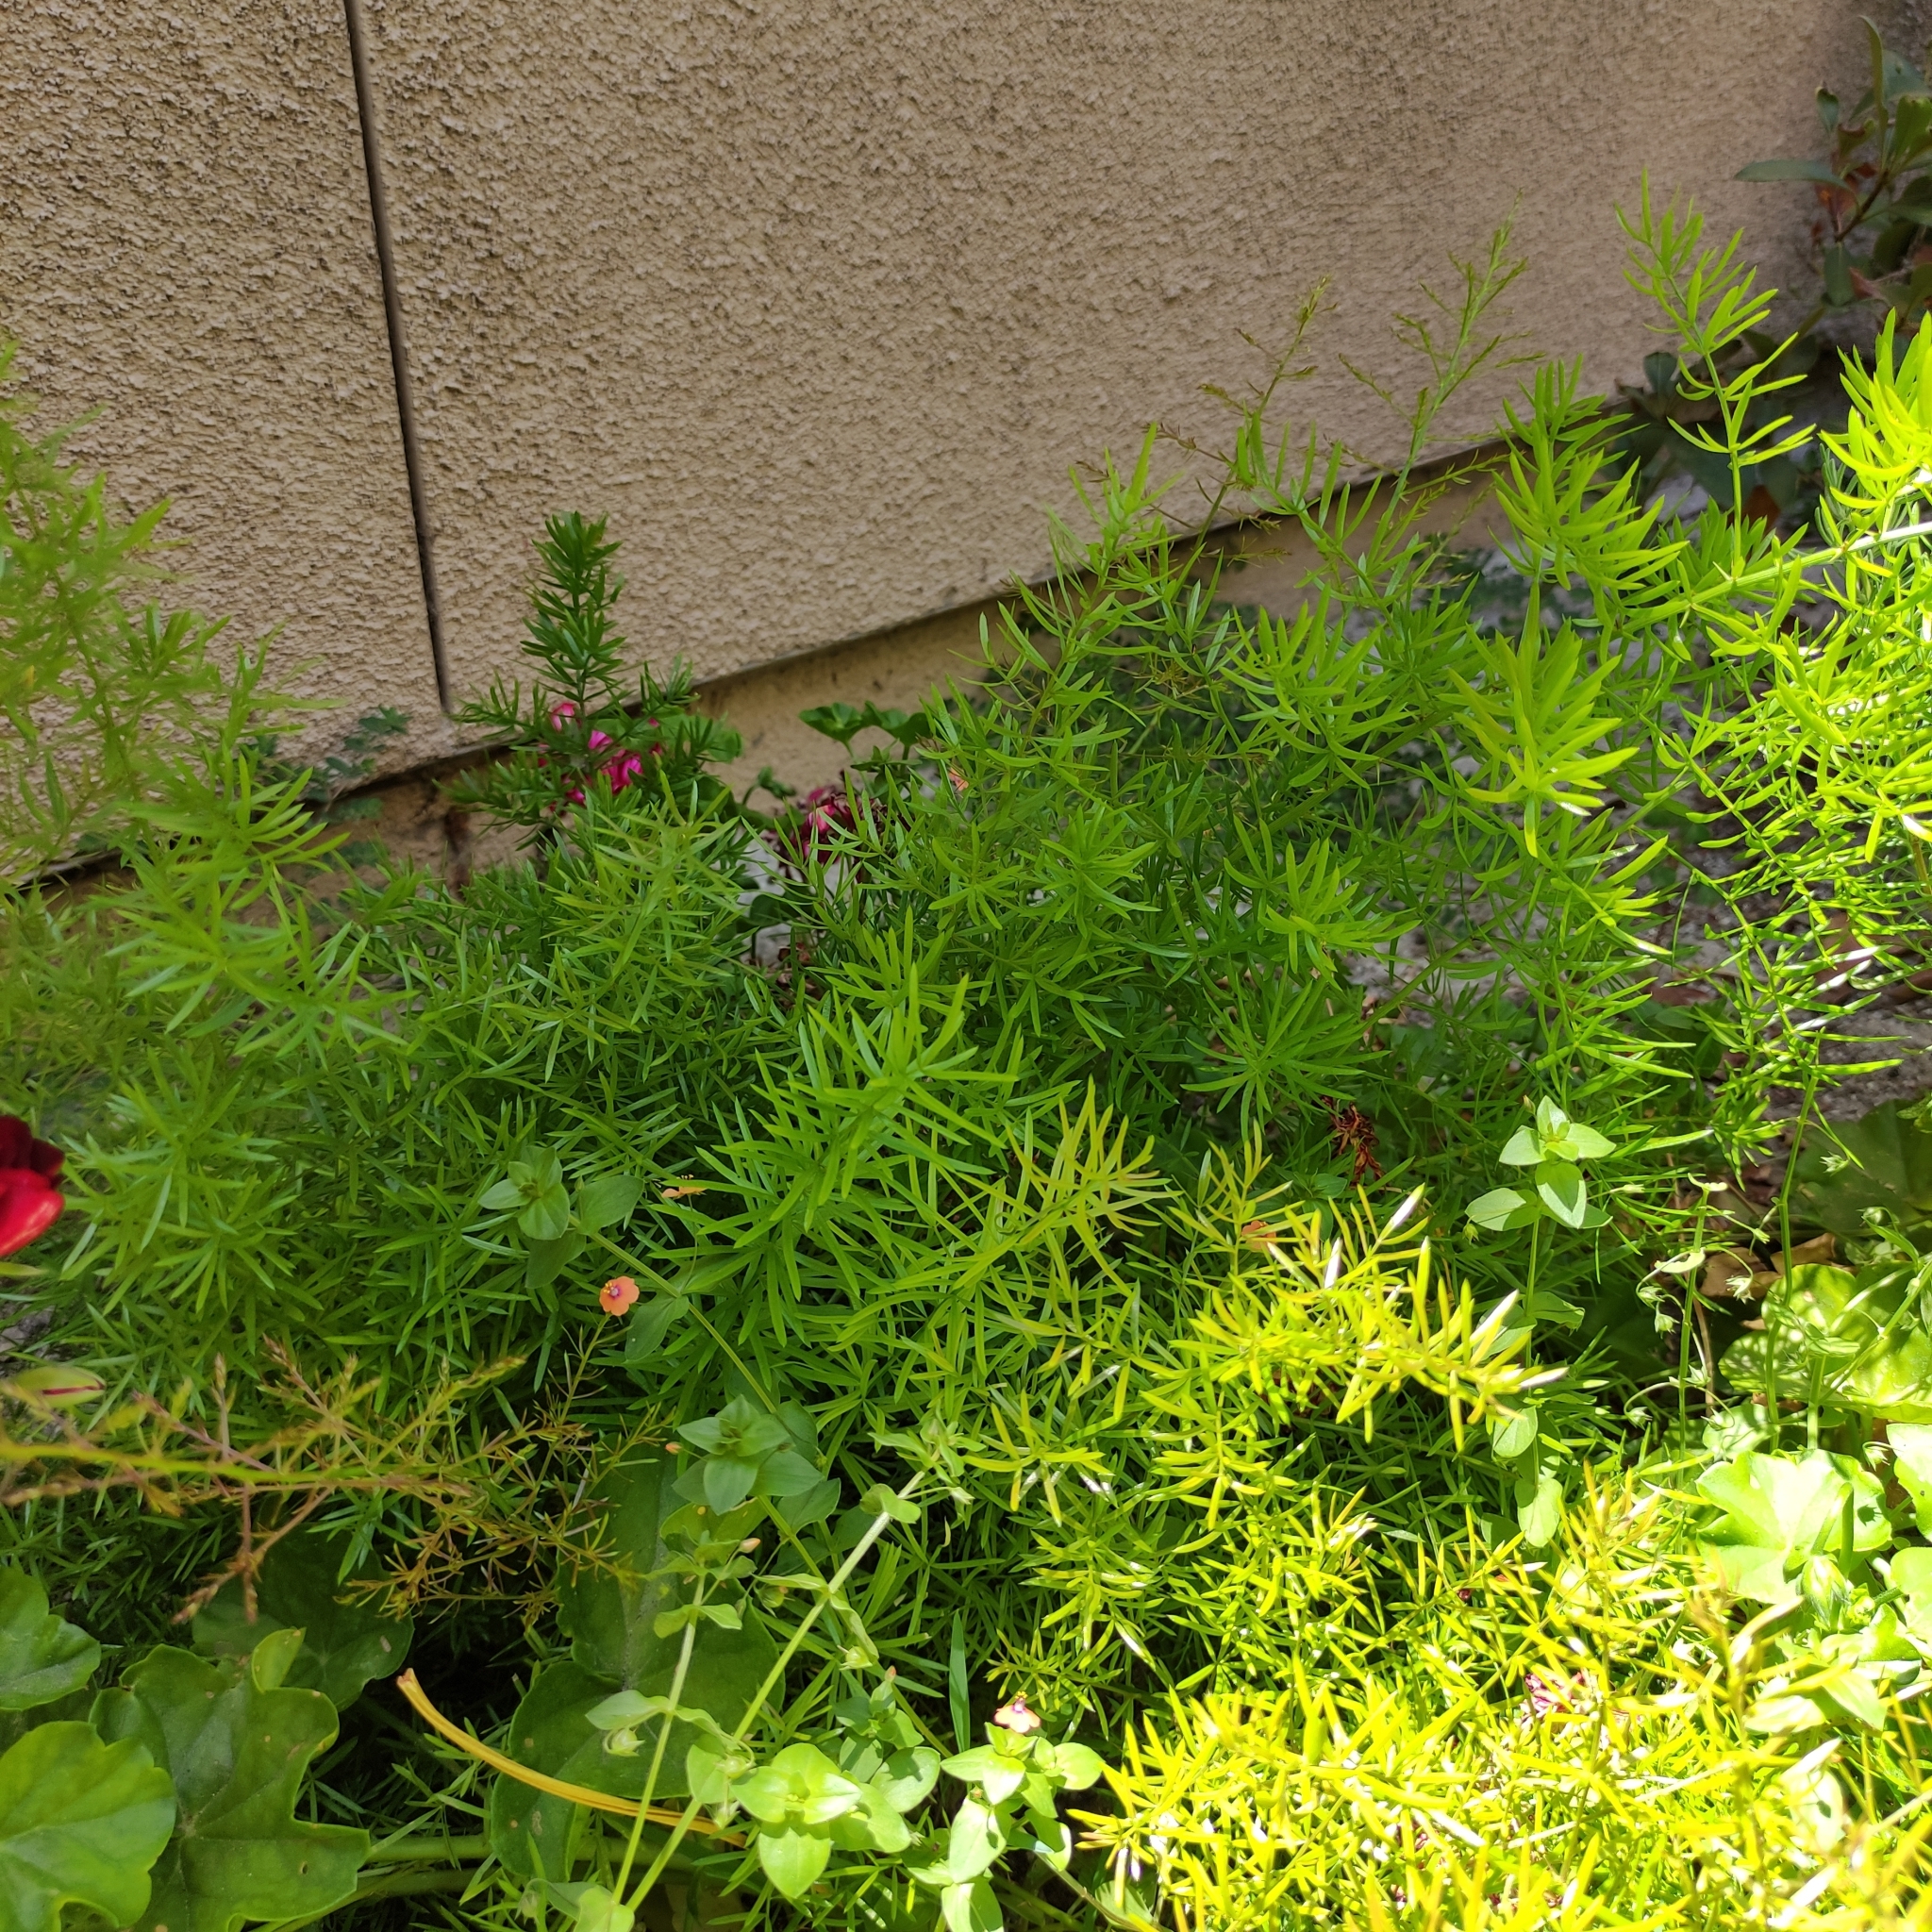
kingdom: Plantae
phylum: Tracheophyta
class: Liliopsida
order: Asparagales
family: Asparagaceae
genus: Asparagus
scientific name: Asparagus aethiopicus
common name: Sprenger's asparagus fern
